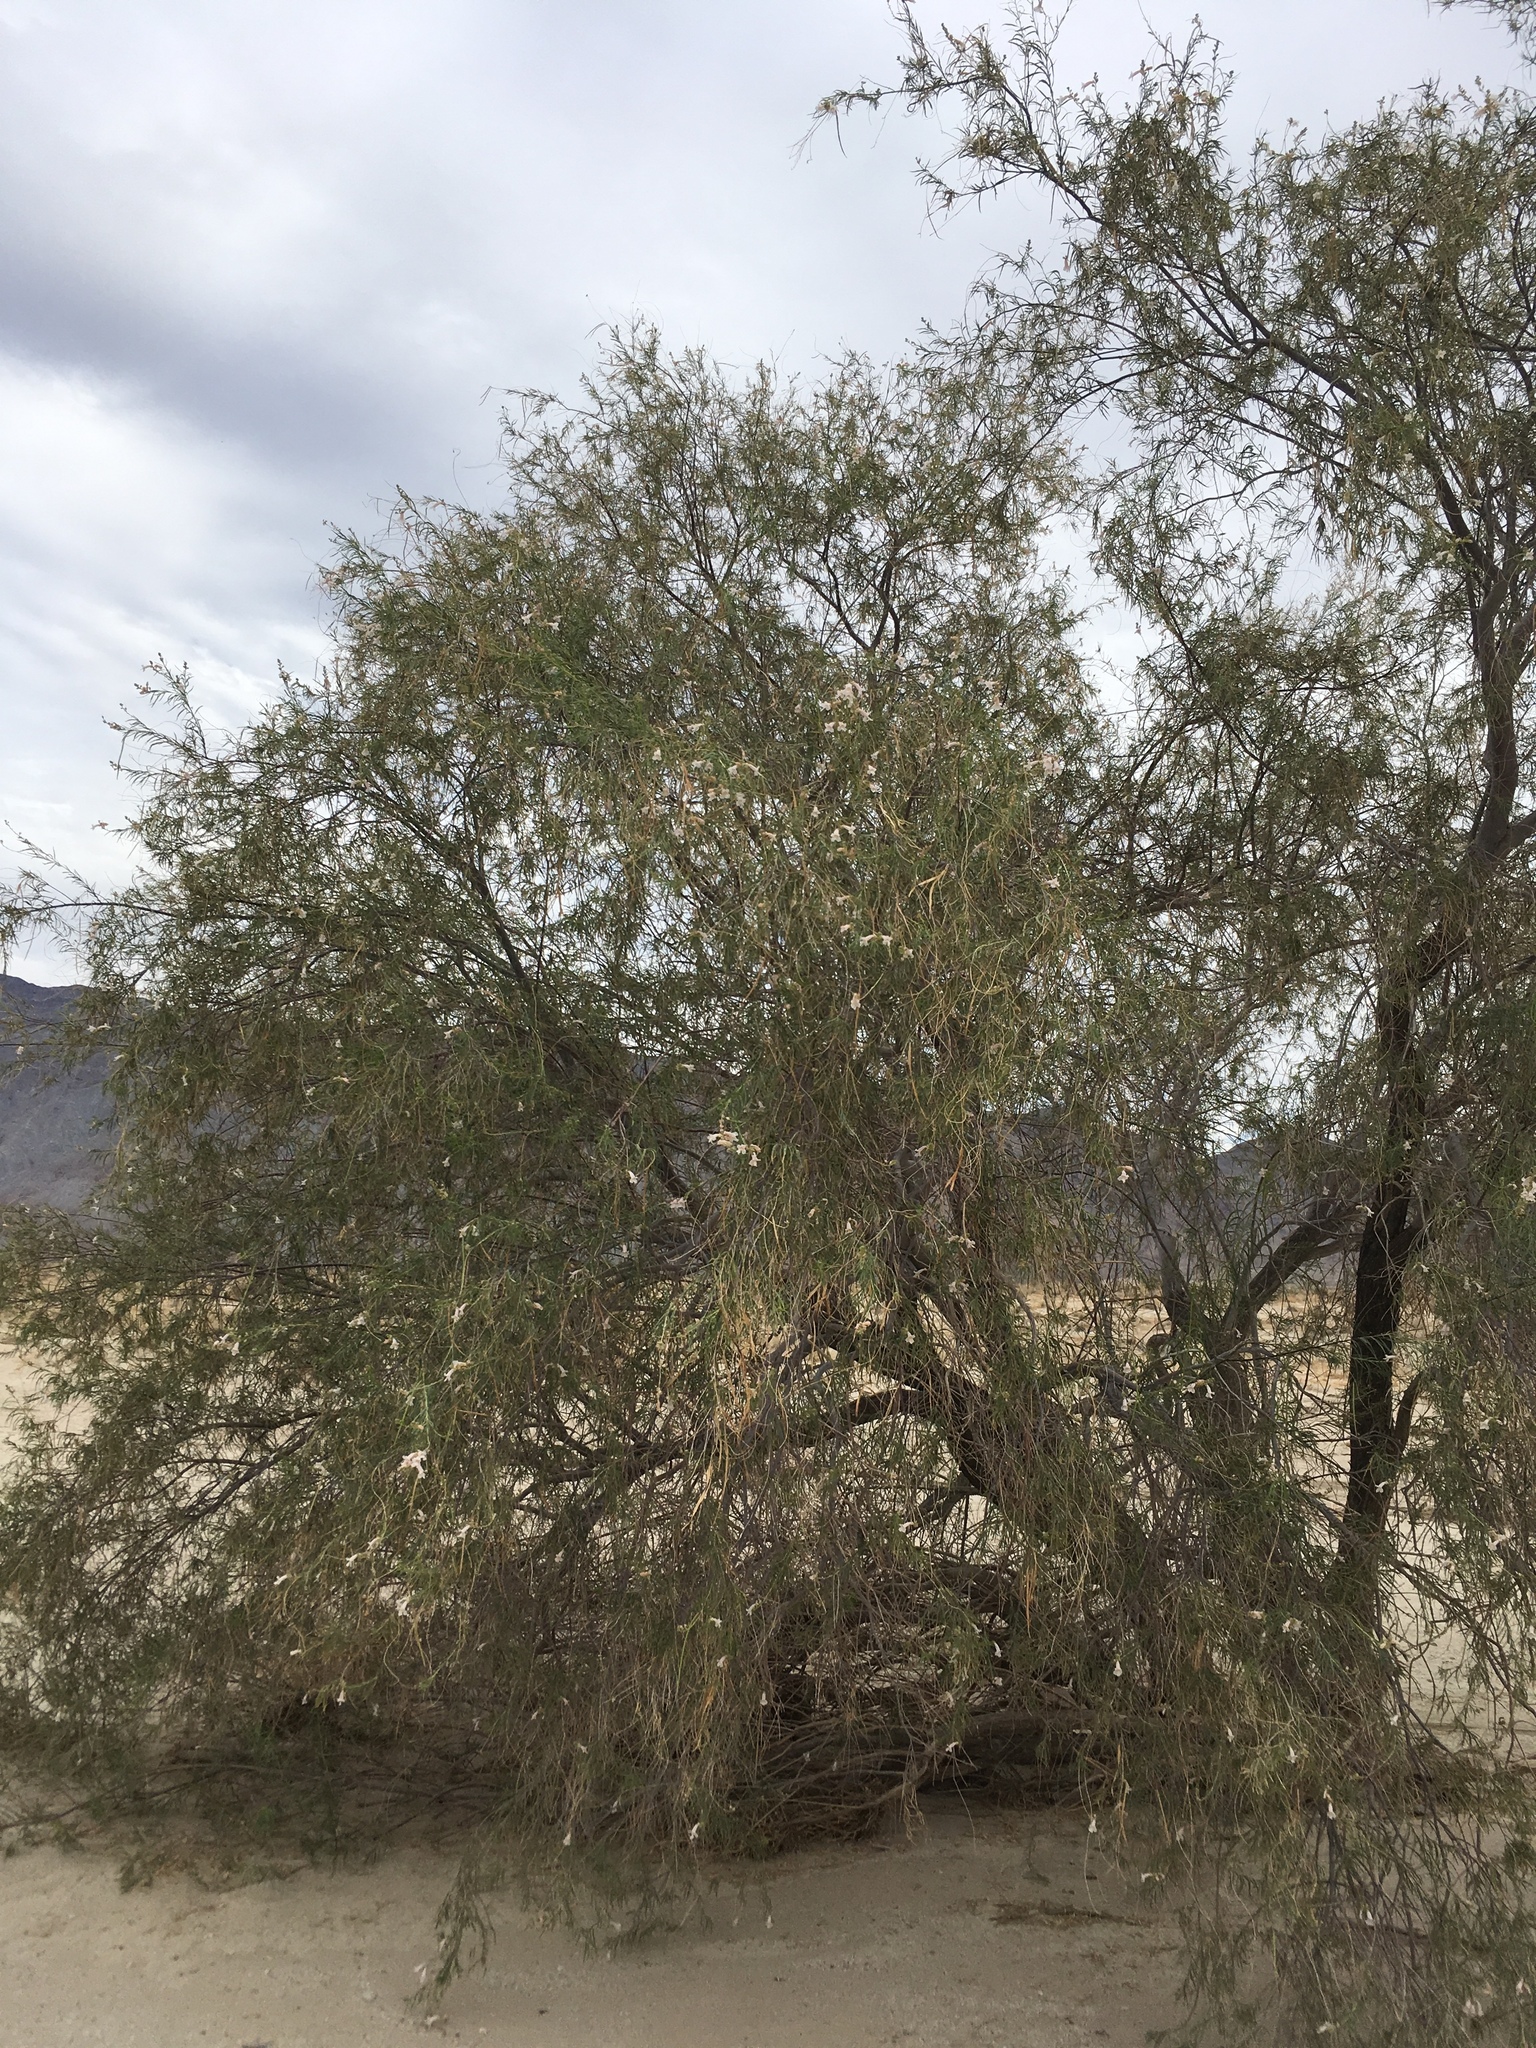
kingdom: Plantae
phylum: Tracheophyta
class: Magnoliopsida
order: Lamiales
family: Bignoniaceae
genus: Chilopsis
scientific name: Chilopsis linearis
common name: Desert-willow
